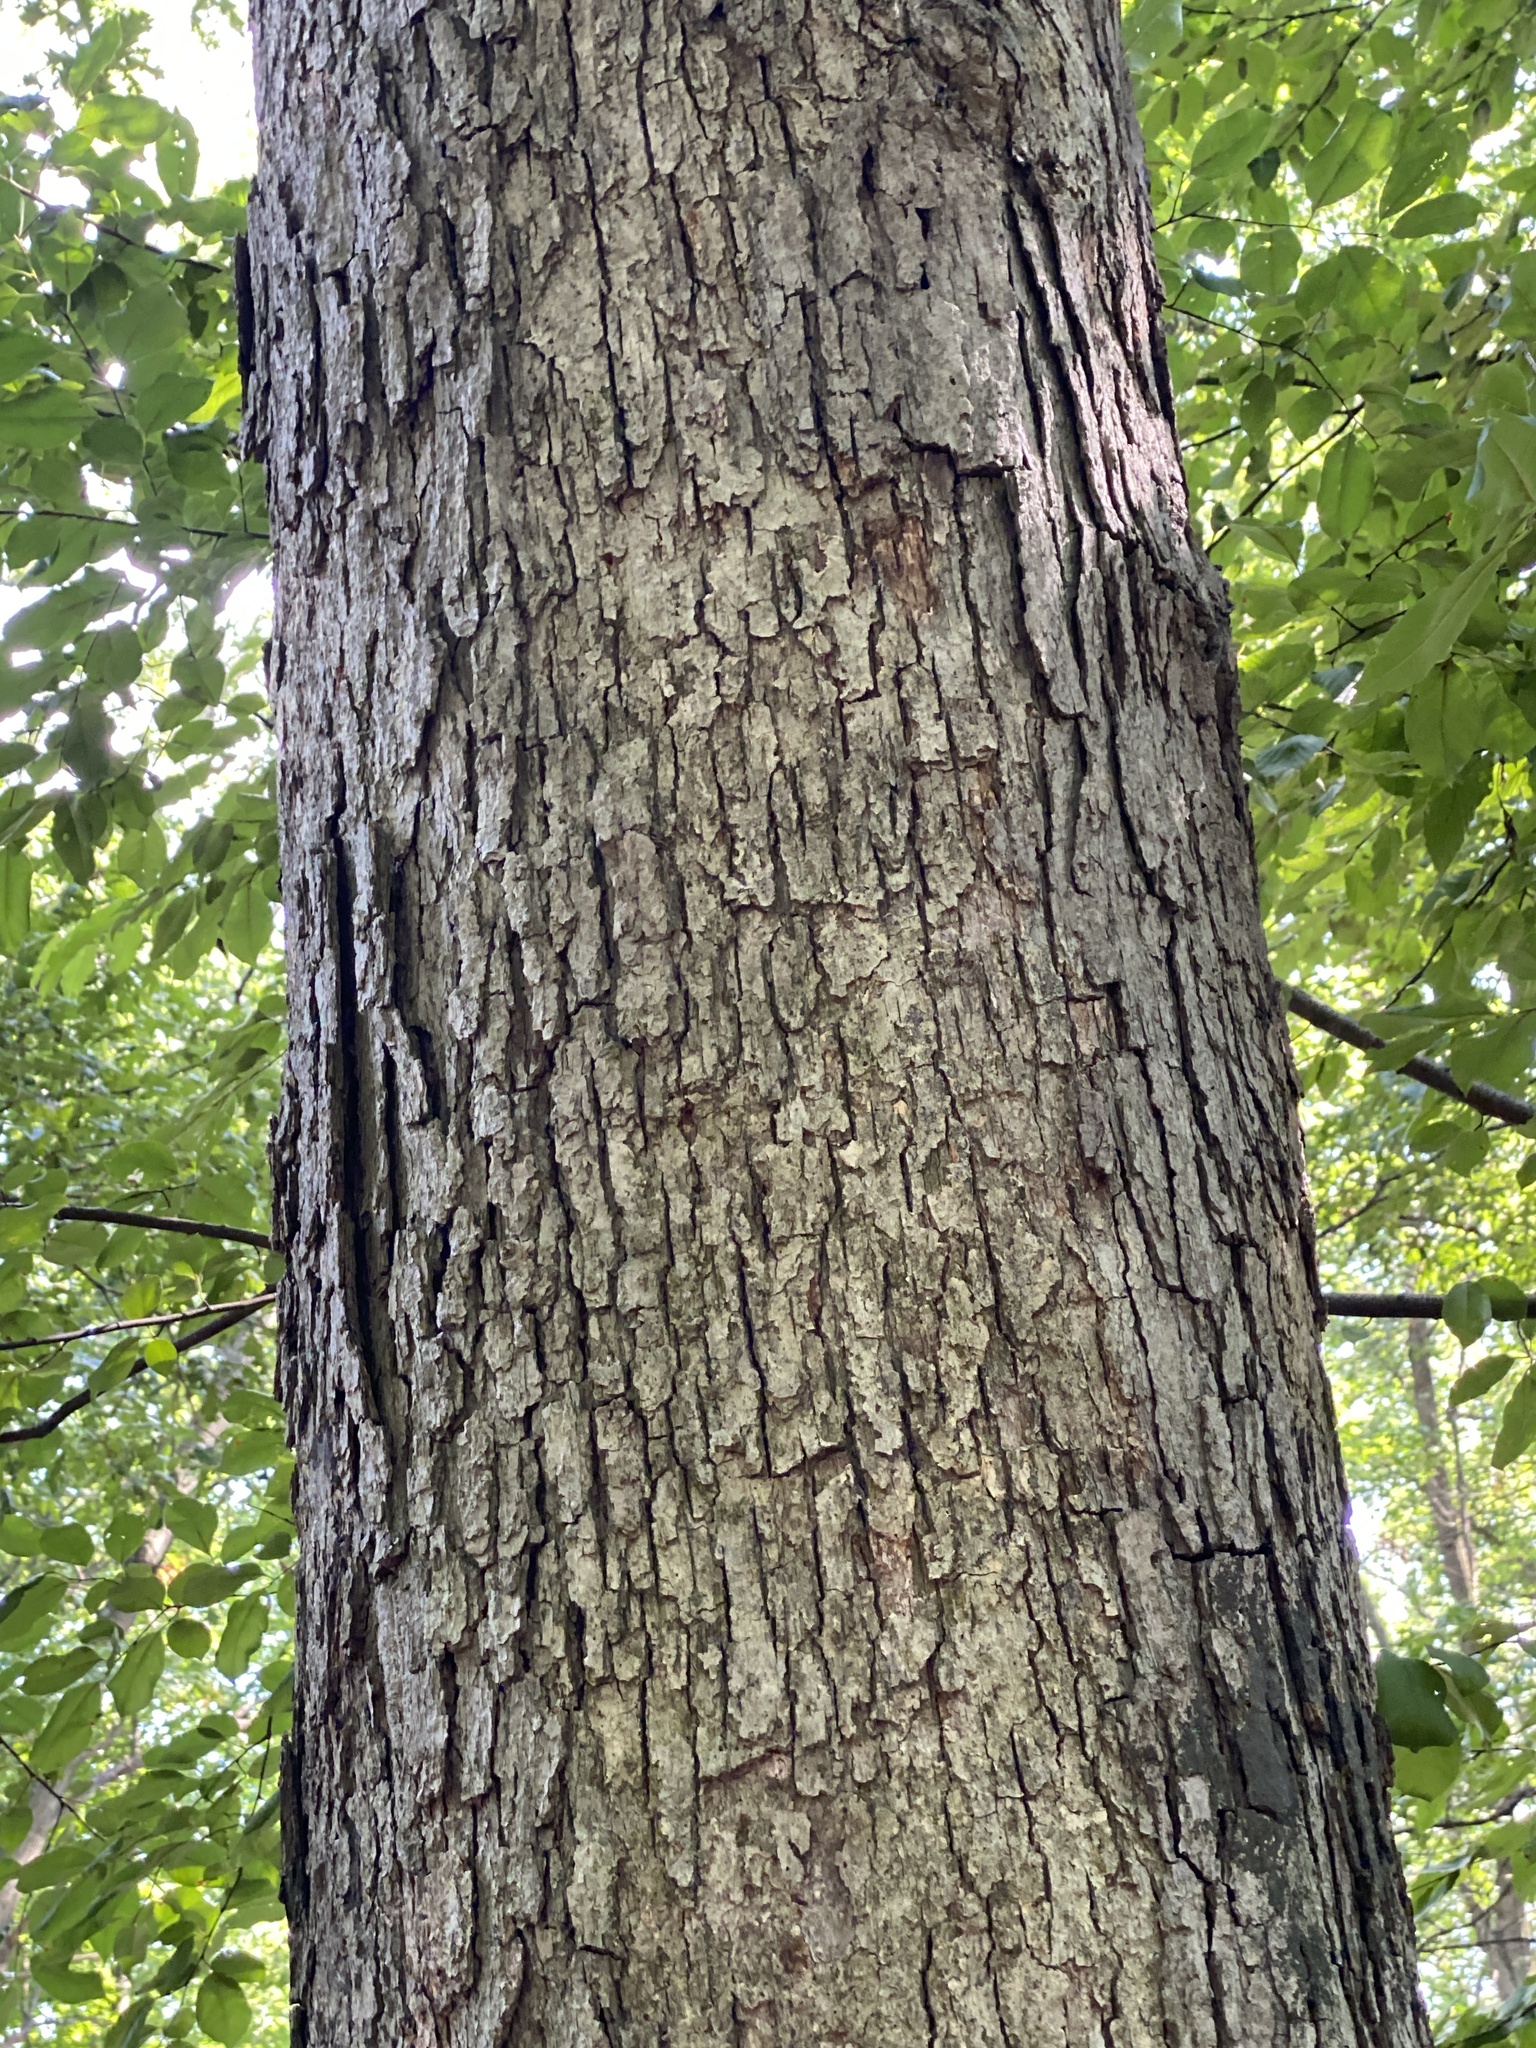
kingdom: Fungi
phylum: Basidiomycota
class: Agaricomycetes
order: Russulales
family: Stereaceae
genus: Acanthophysium
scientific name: Acanthophysium oakesii
